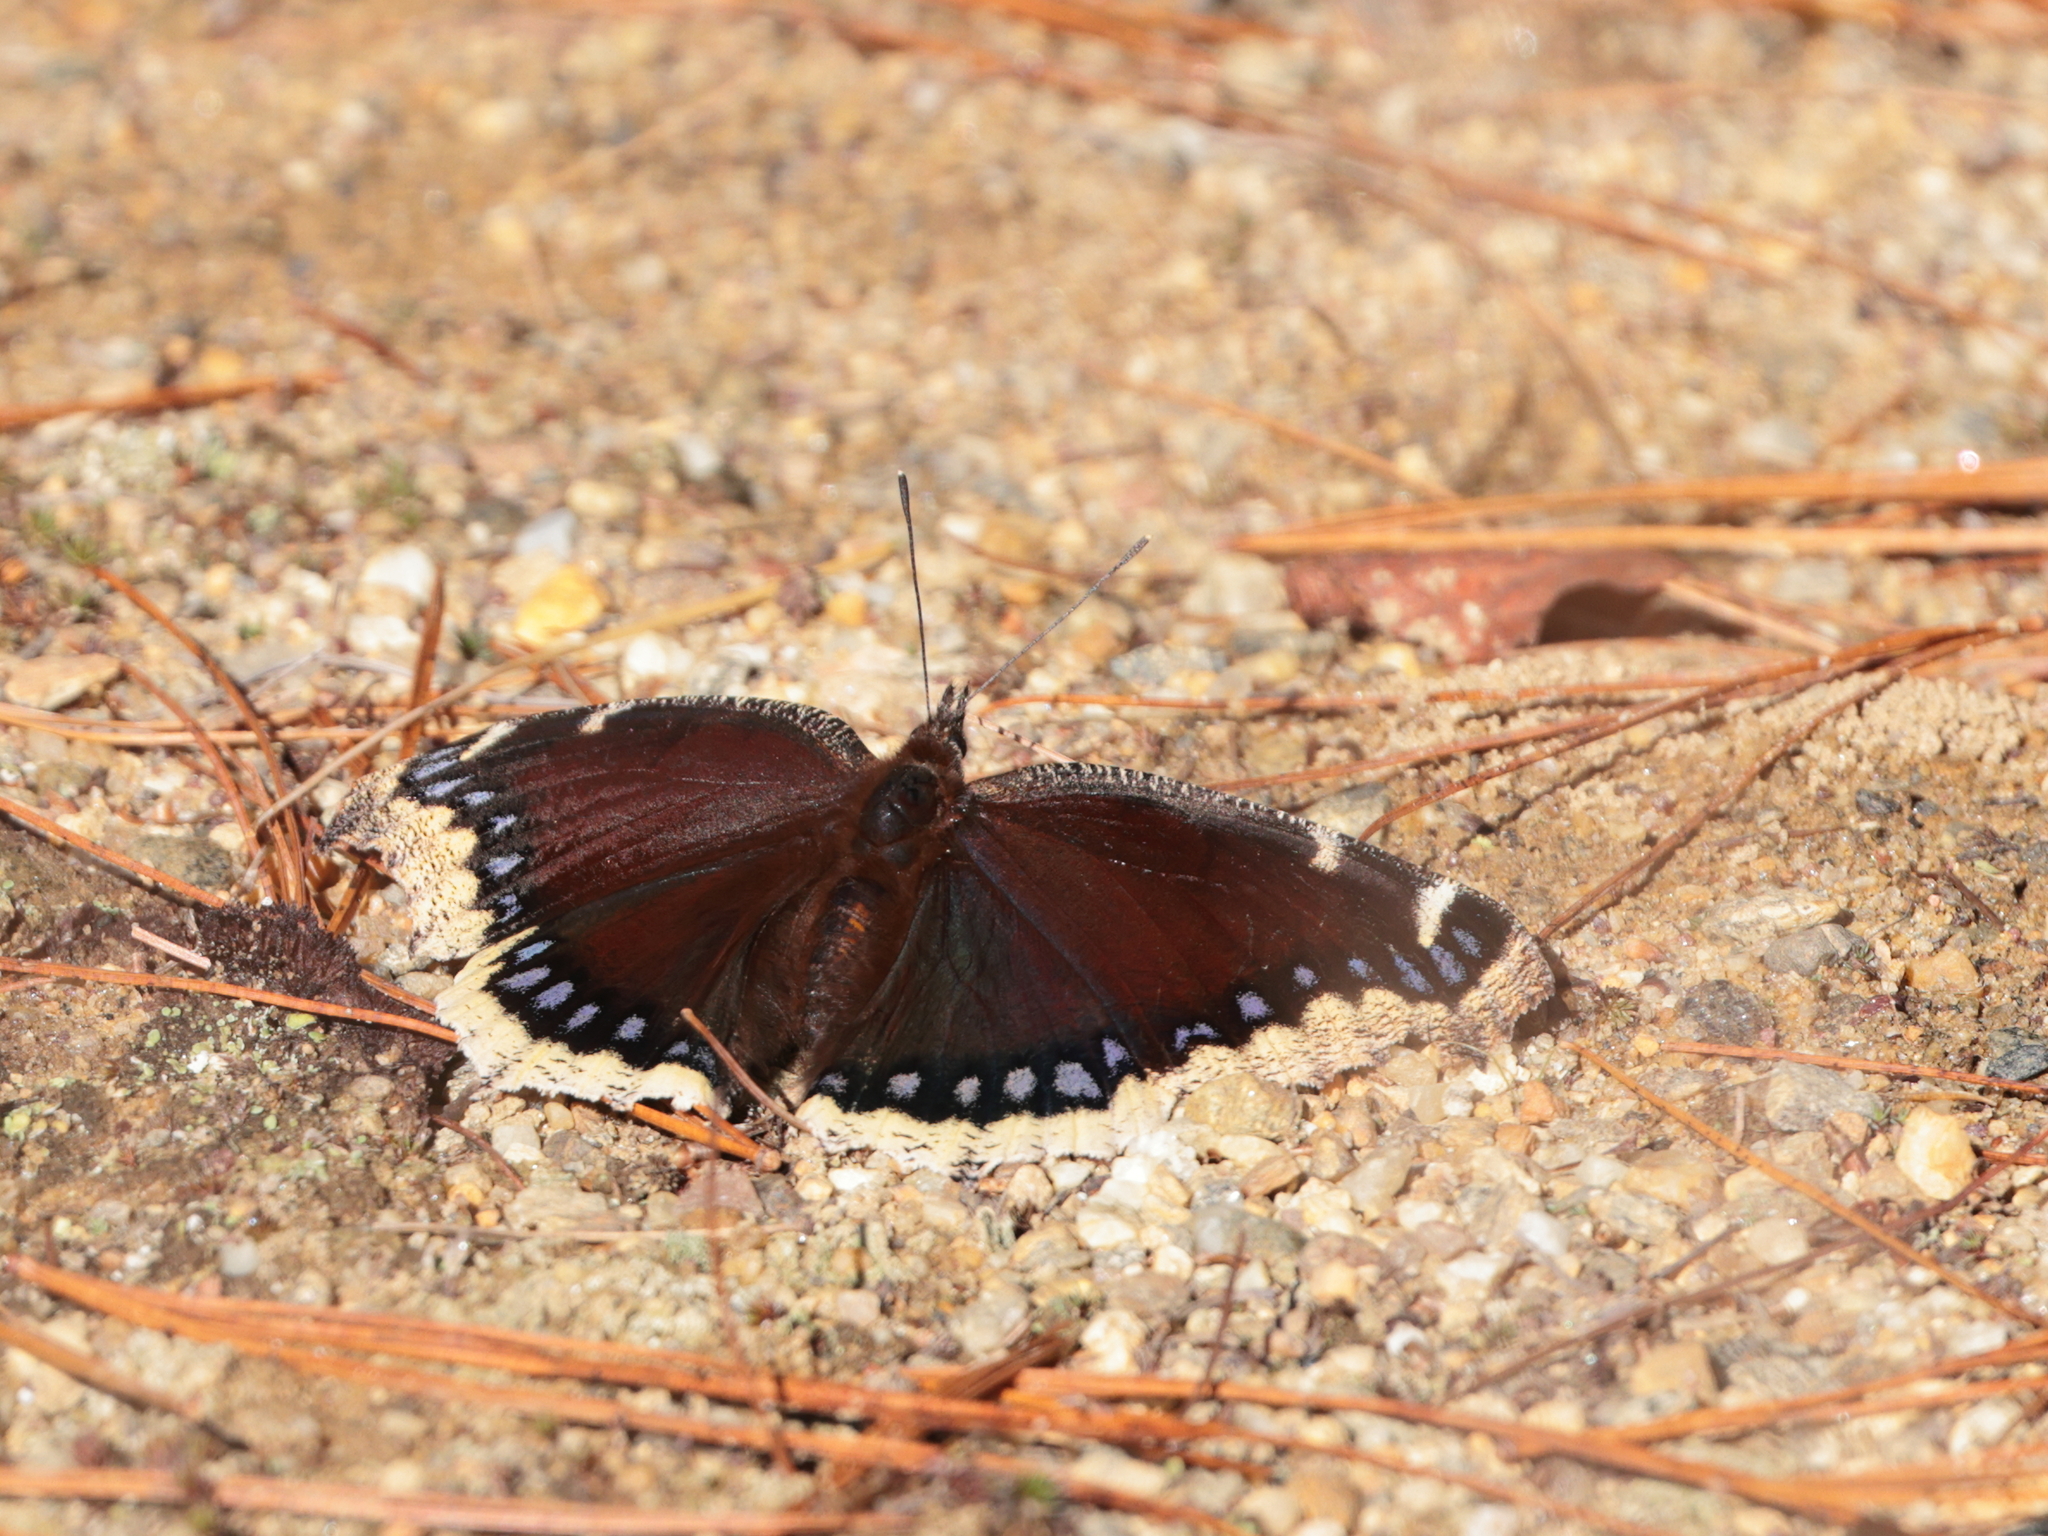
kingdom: Animalia
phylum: Arthropoda
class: Insecta
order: Lepidoptera
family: Nymphalidae
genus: Nymphalis
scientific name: Nymphalis antiopa
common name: Camberwell beauty
